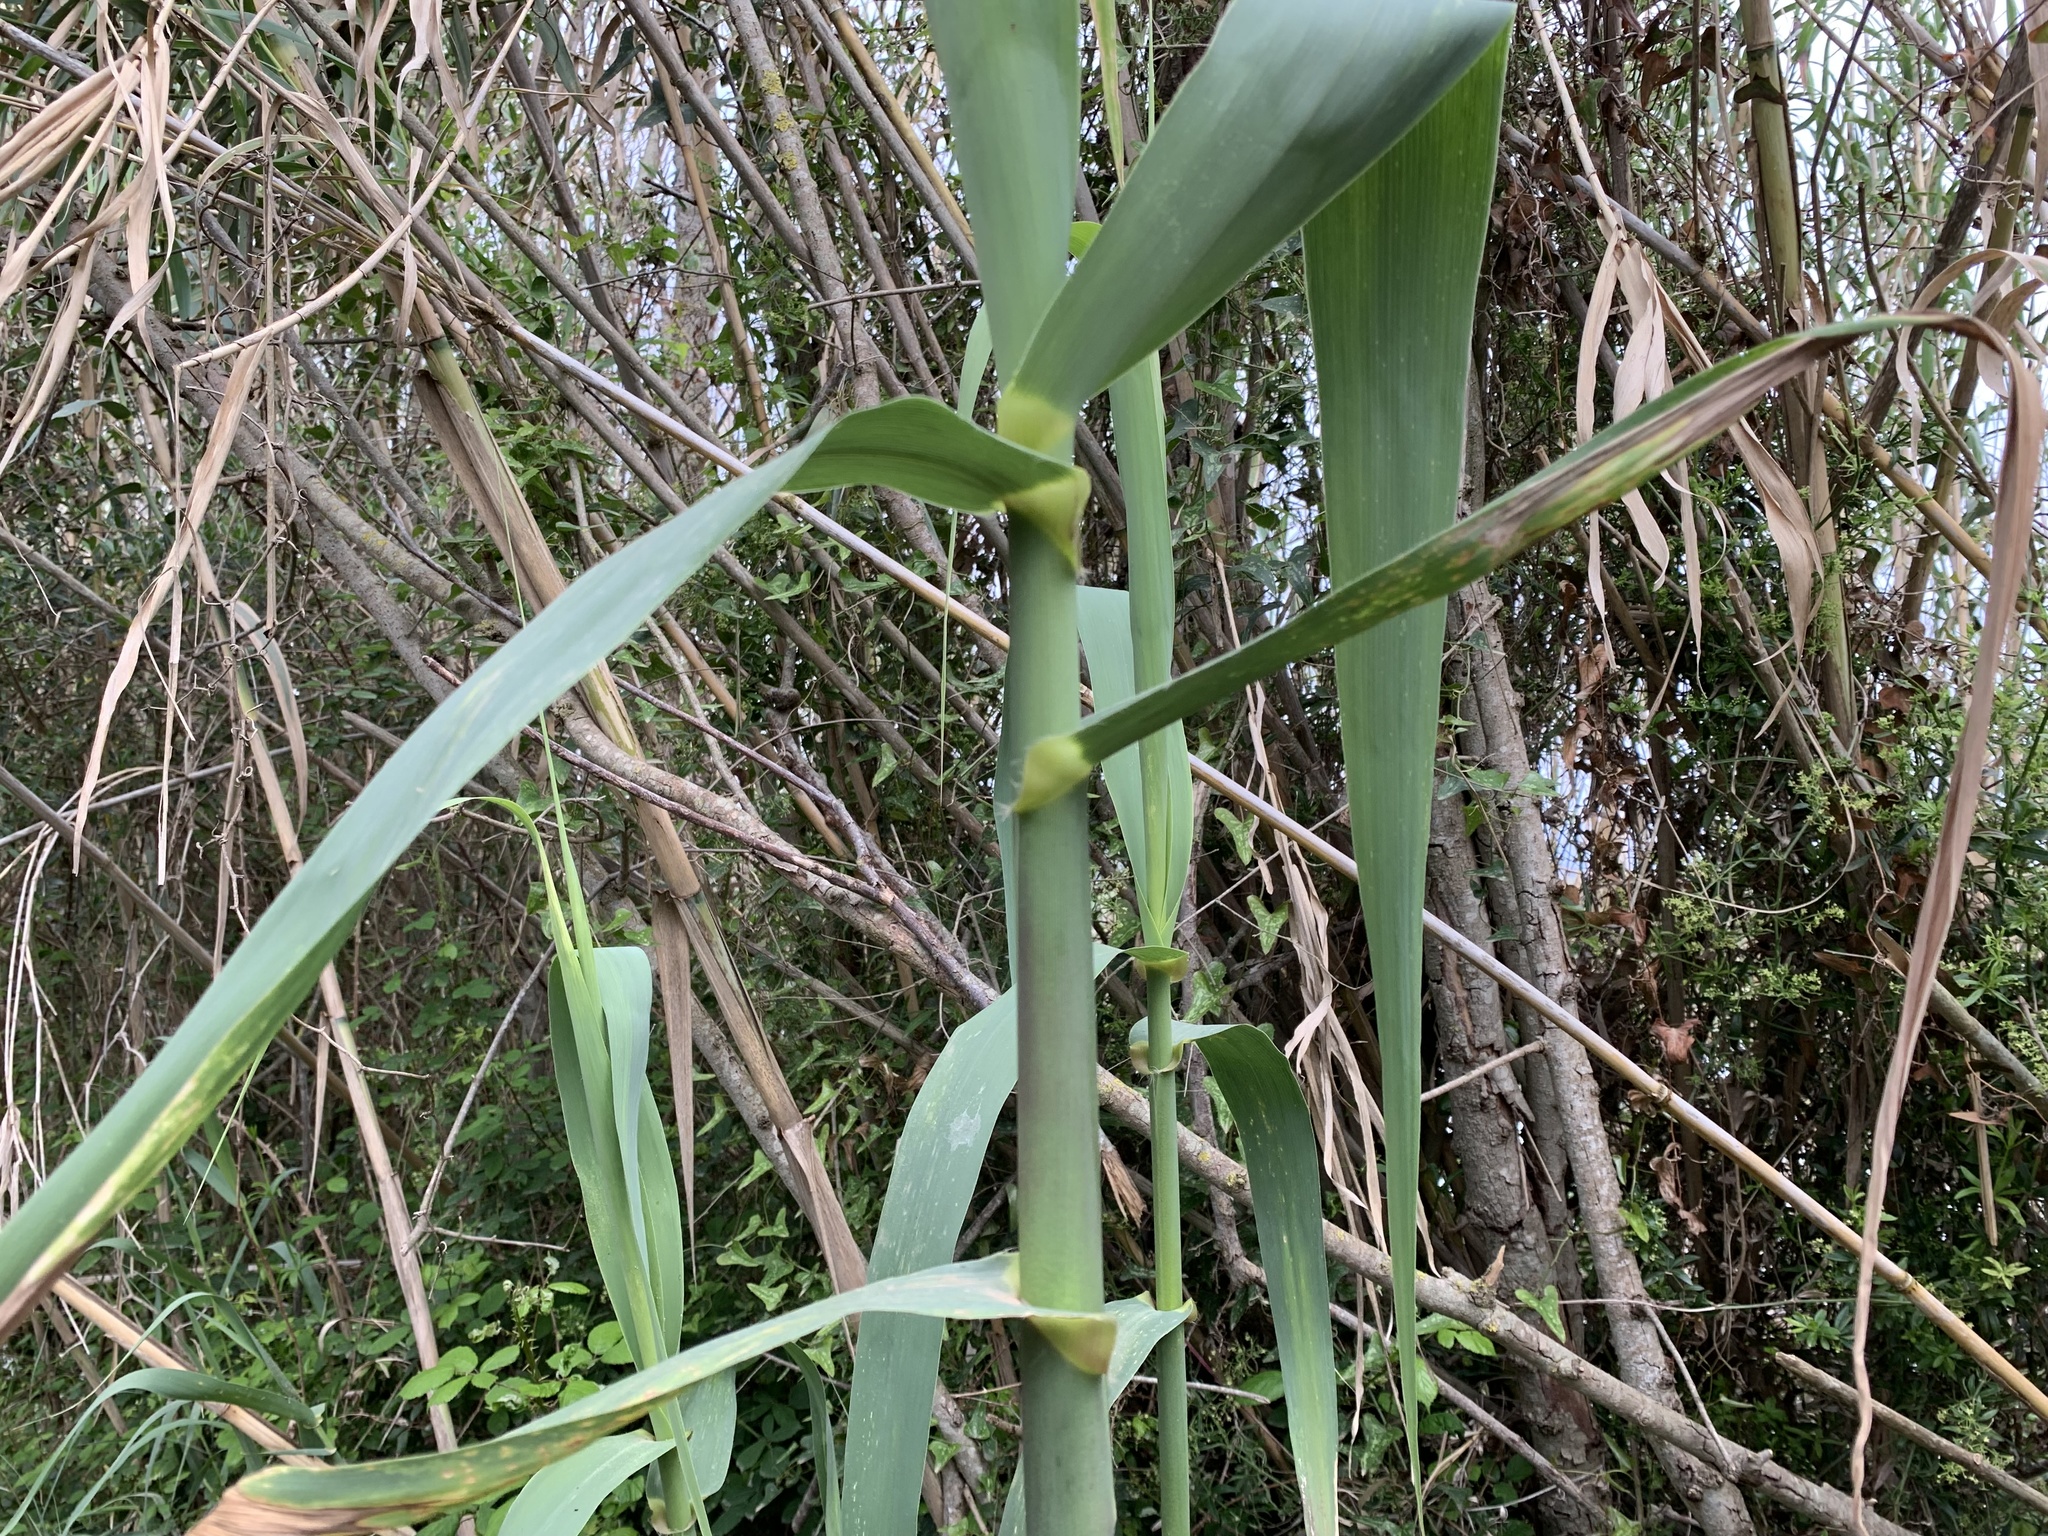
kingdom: Plantae
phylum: Tracheophyta
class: Liliopsida
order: Poales
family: Poaceae
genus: Arundo
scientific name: Arundo donax
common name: Giant reed
